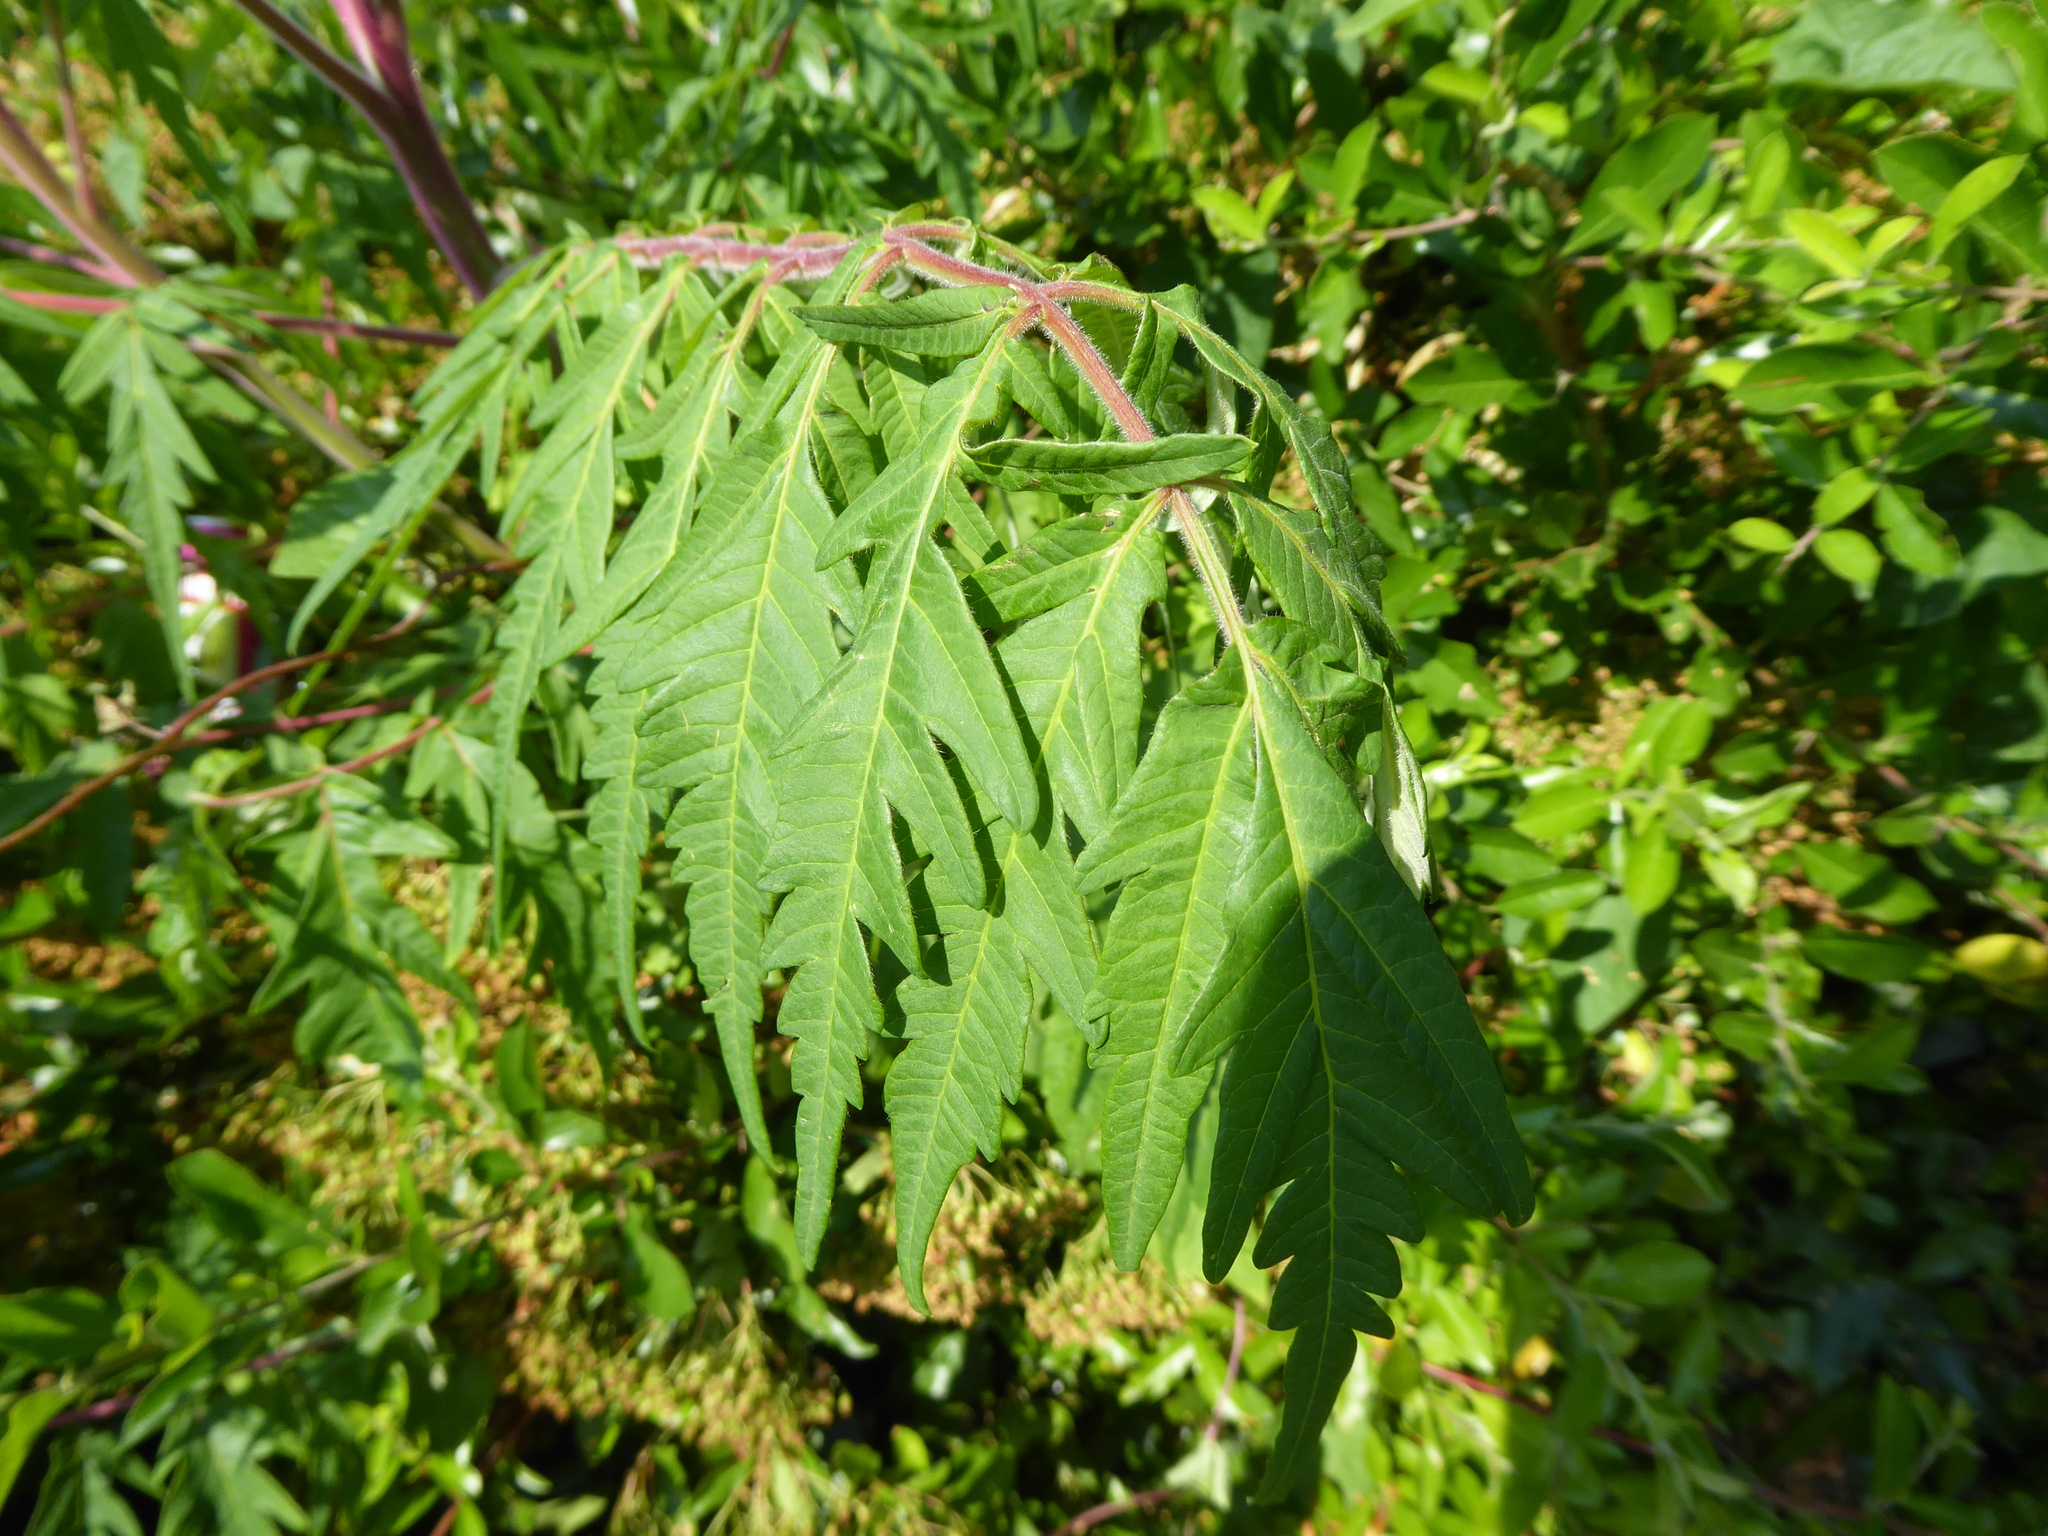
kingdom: Plantae
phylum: Tracheophyta
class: Magnoliopsida
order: Sapindales
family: Anacardiaceae
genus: Rhus
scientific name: Rhus typhina
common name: Staghorn sumac
